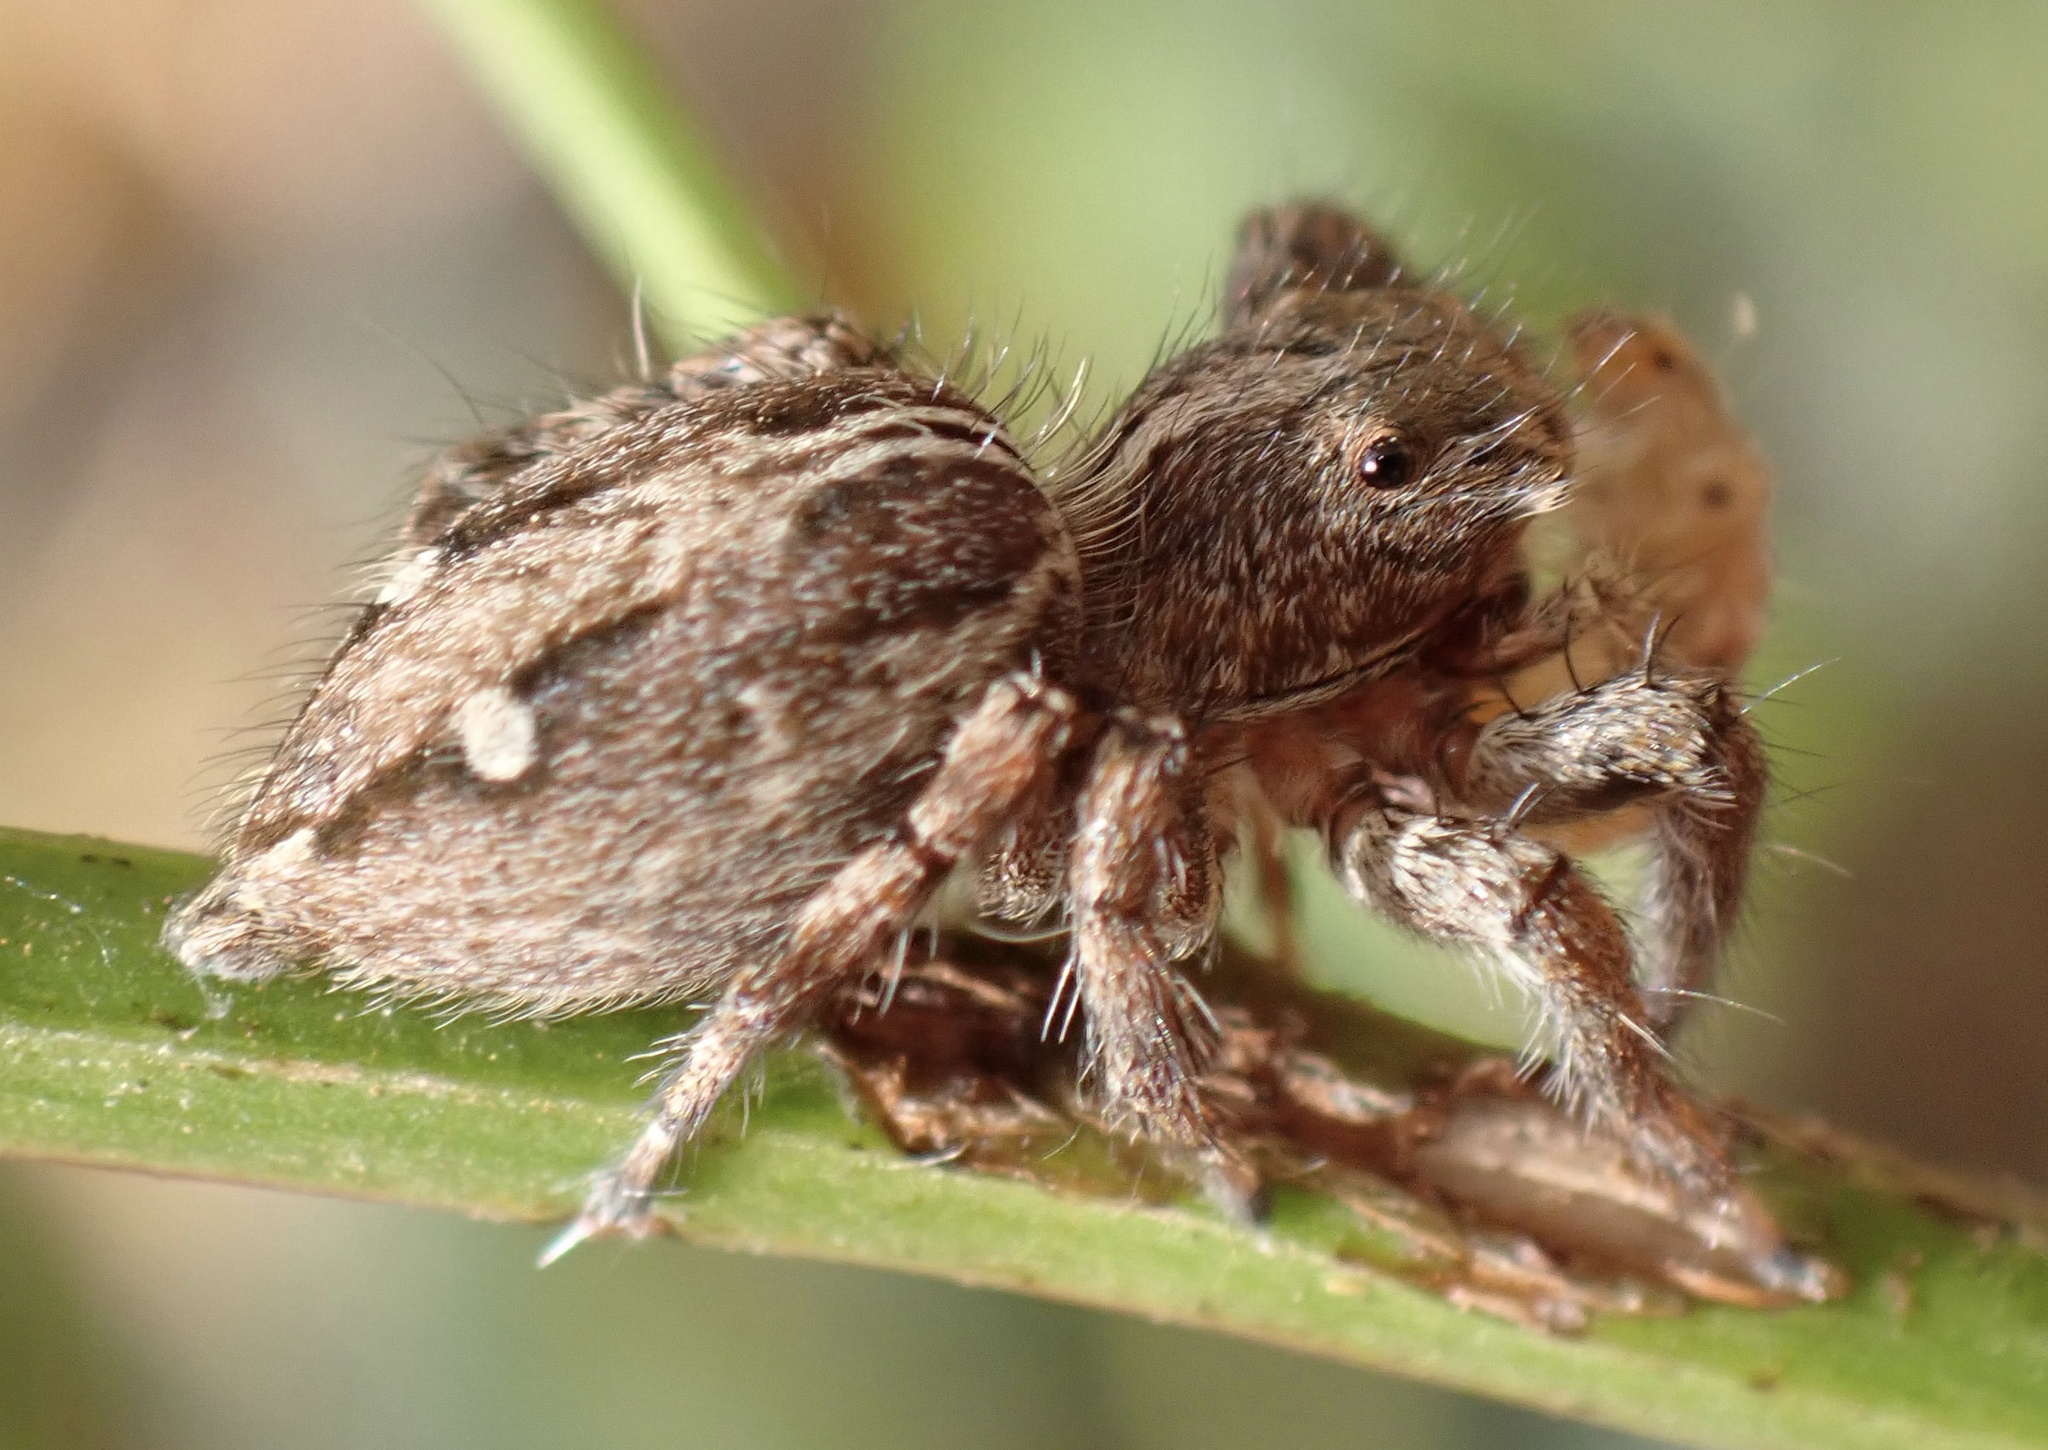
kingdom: Animalia
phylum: Arthropoda
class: Arachnida
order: Araneae
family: Salticidae
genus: Plexippus
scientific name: Plexippus paykulli
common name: Pantropical jumper
